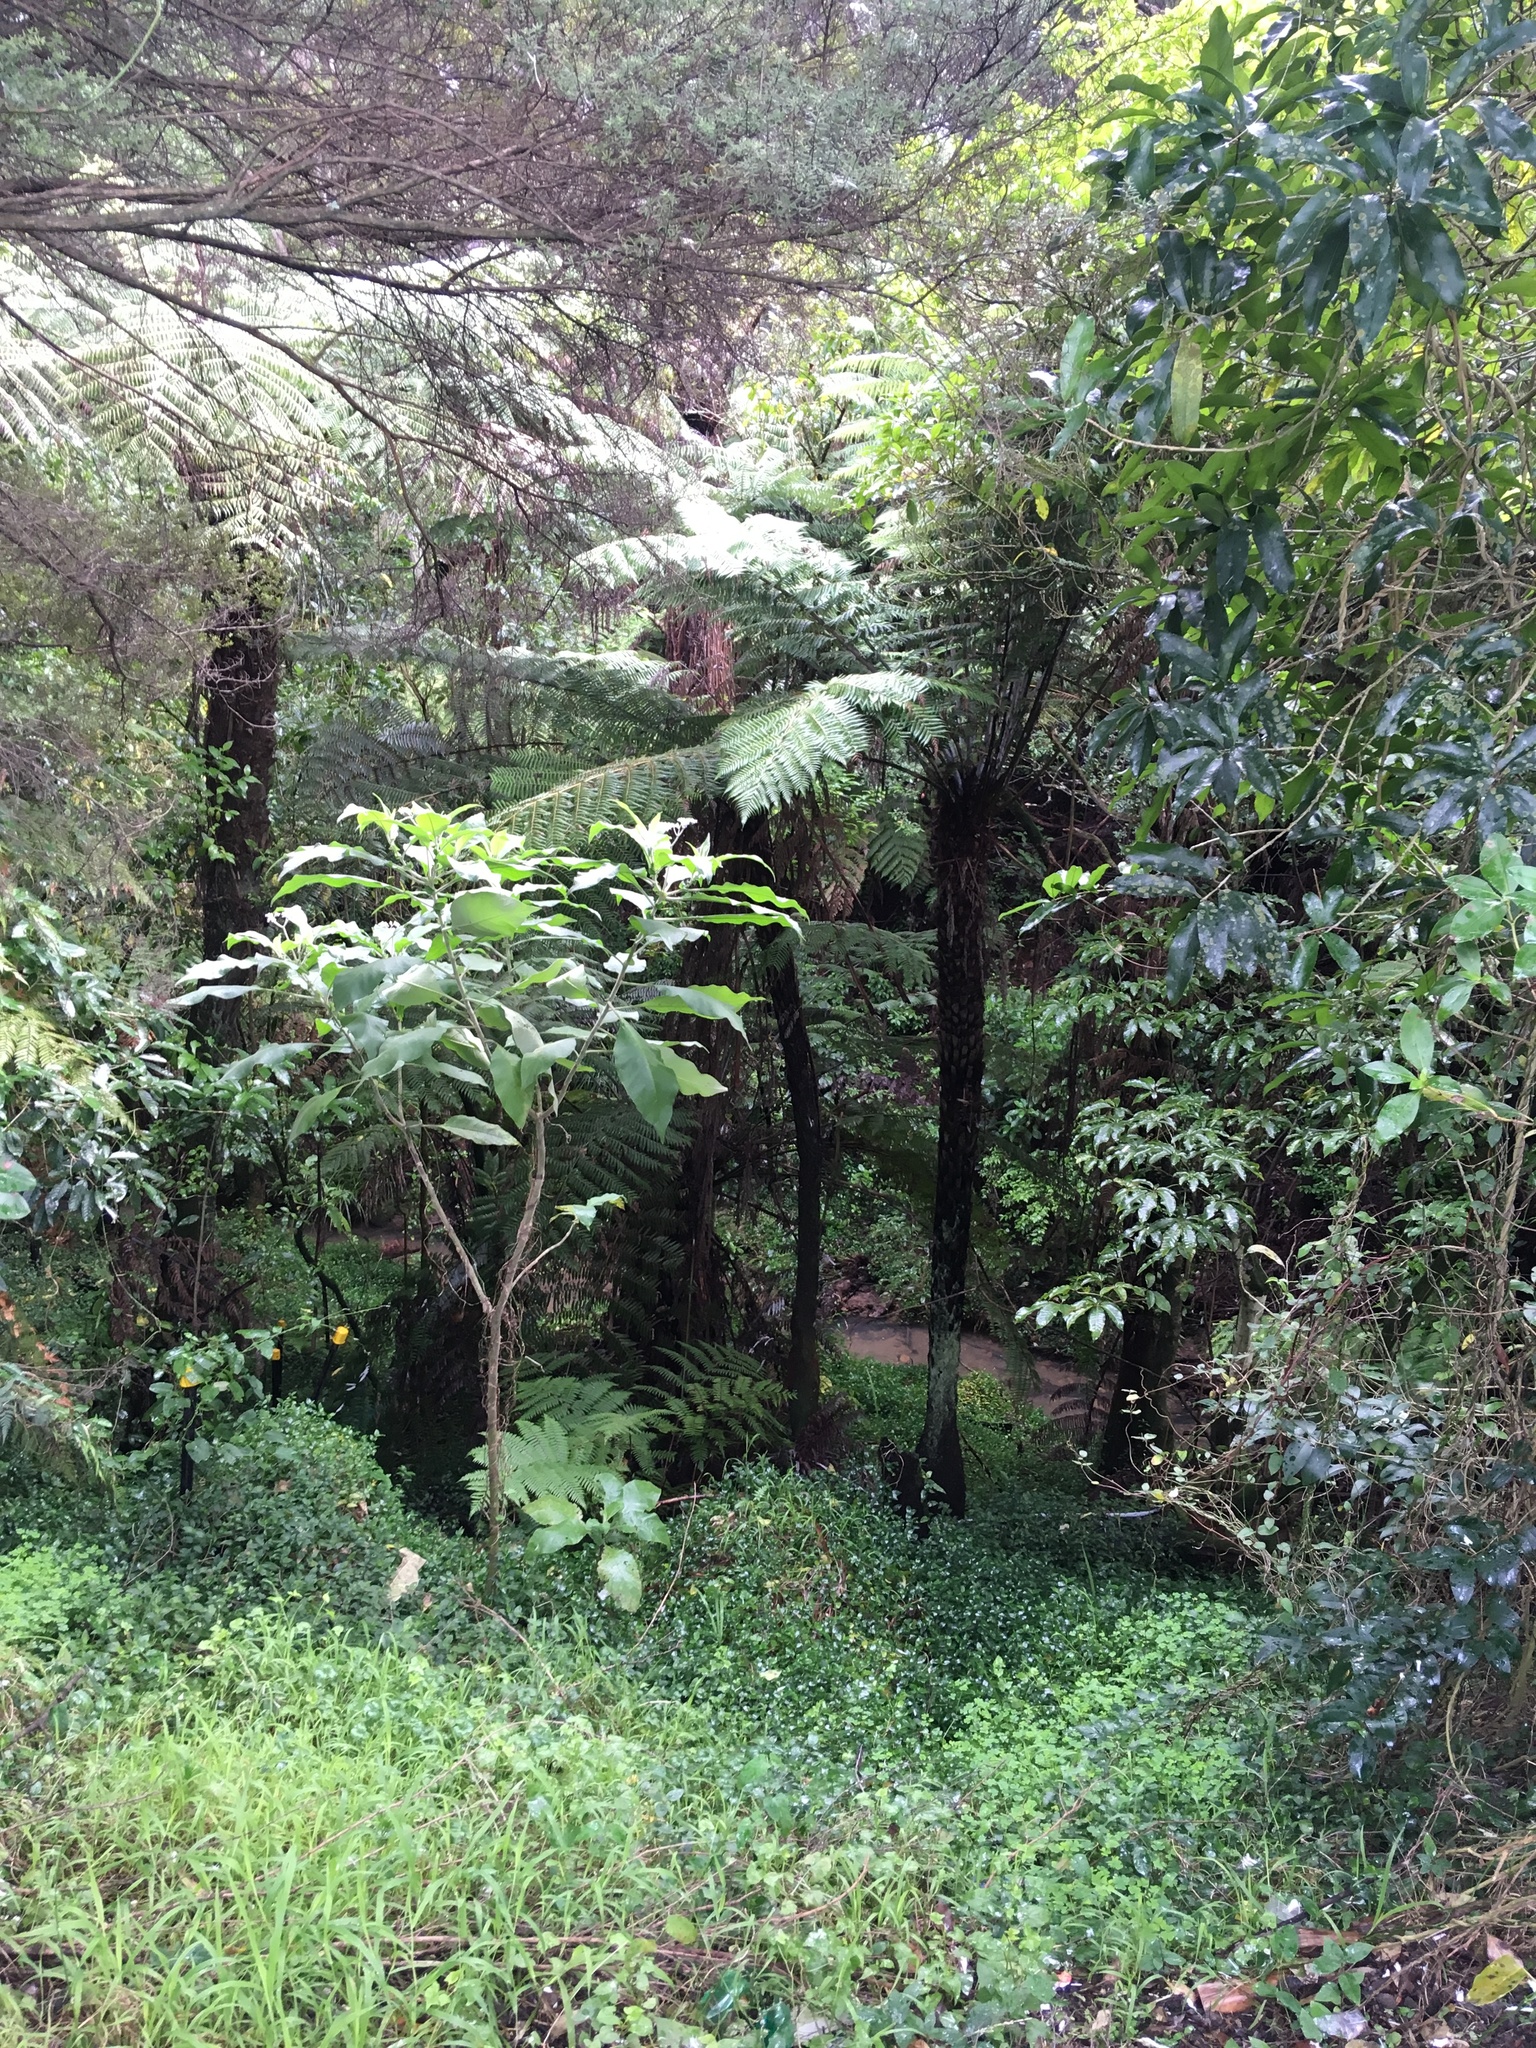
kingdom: Plantae
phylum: Tracheophyta
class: Polypodiopsida
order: Cyatheales
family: Cyatheaceae
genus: Alsophila
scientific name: Alsophila dealbata
